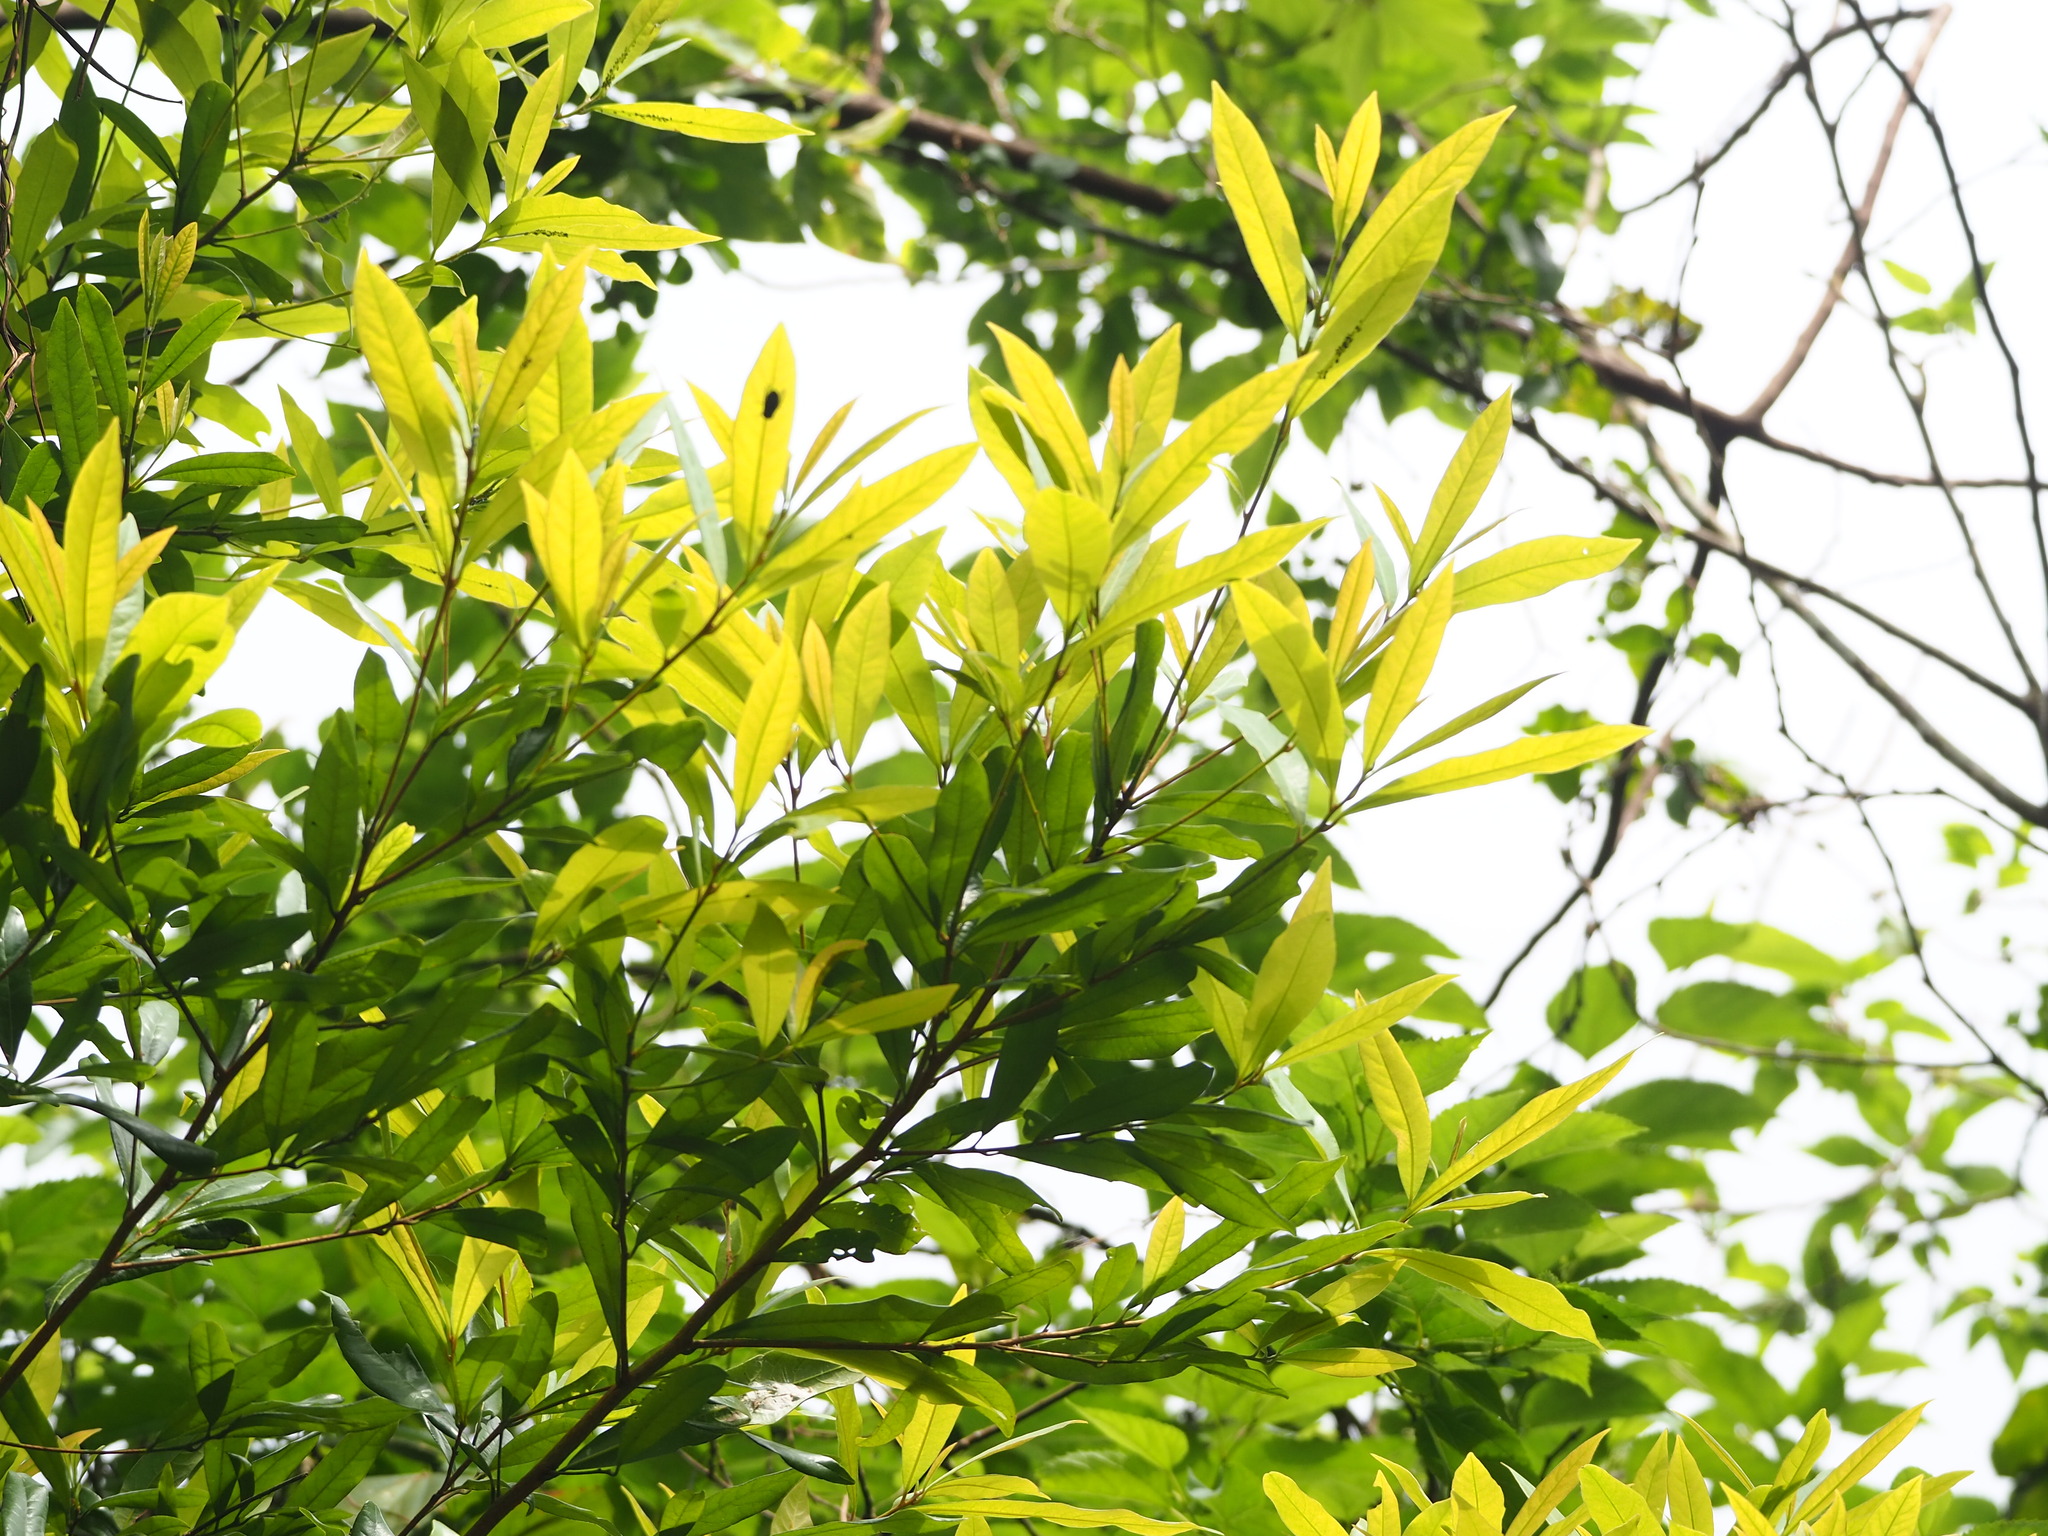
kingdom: Plantae
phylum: Tracheophyta
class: Magnoliopsida
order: Laurales
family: Lauraceae
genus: Machilus
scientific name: Machilus zuihoensis
